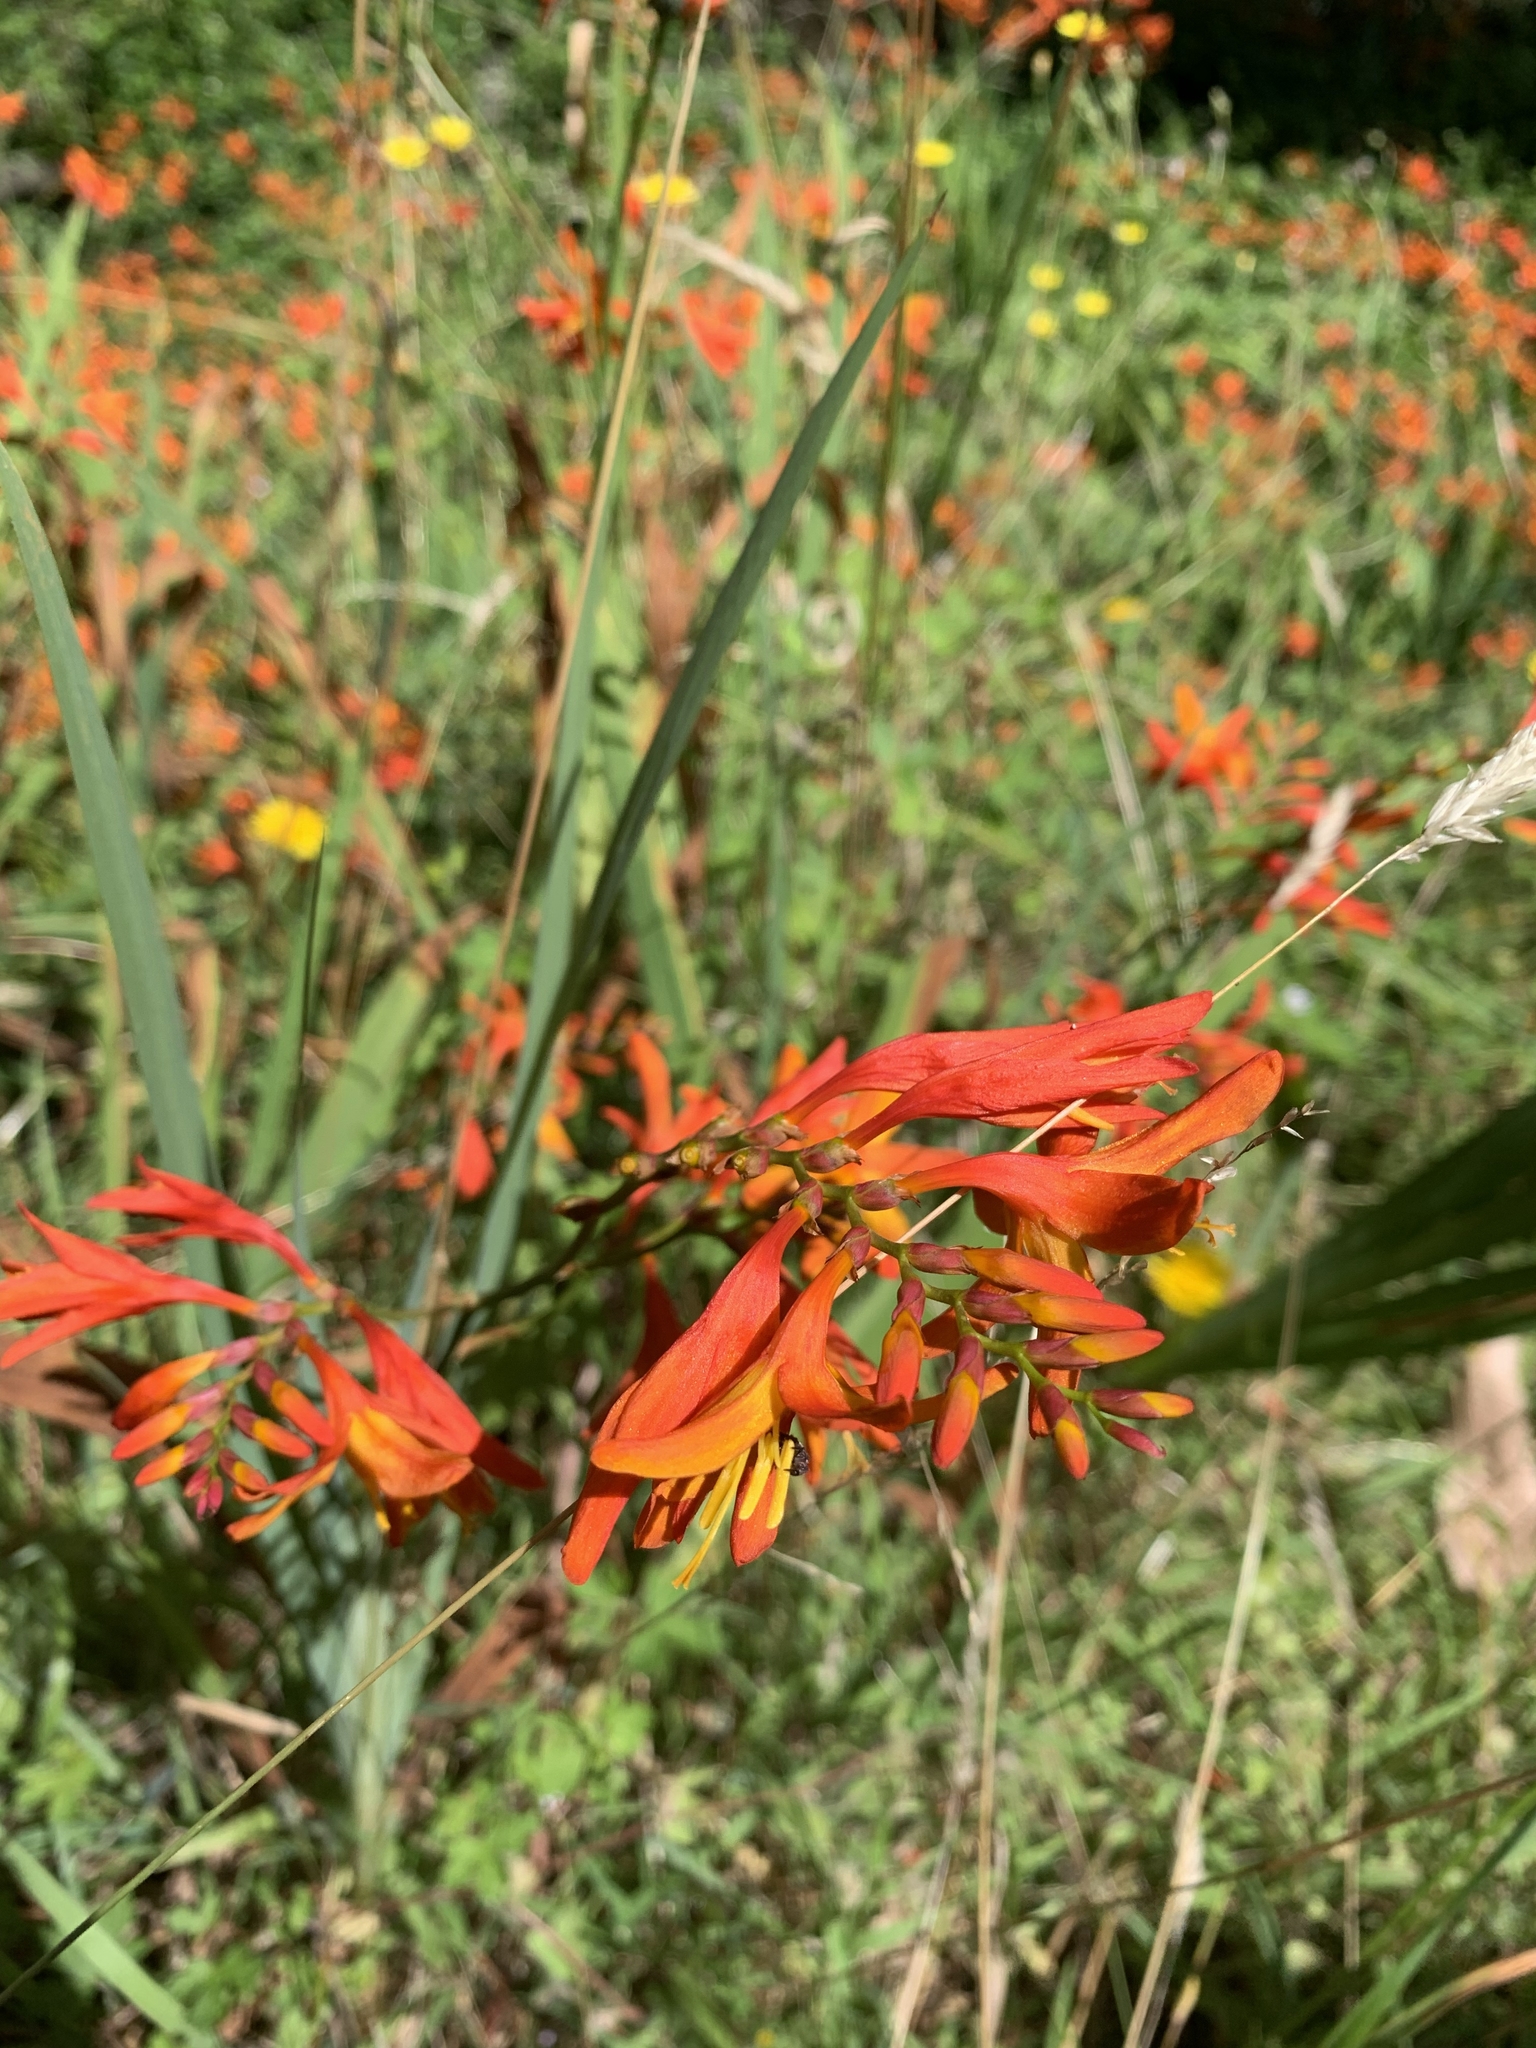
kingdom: Plantae
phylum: Tracheophyta
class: Liliopsida
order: Asparagales
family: Iridaceae
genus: Crocosmia
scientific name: Crocosmia crocosmiiflora
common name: Montbretia
